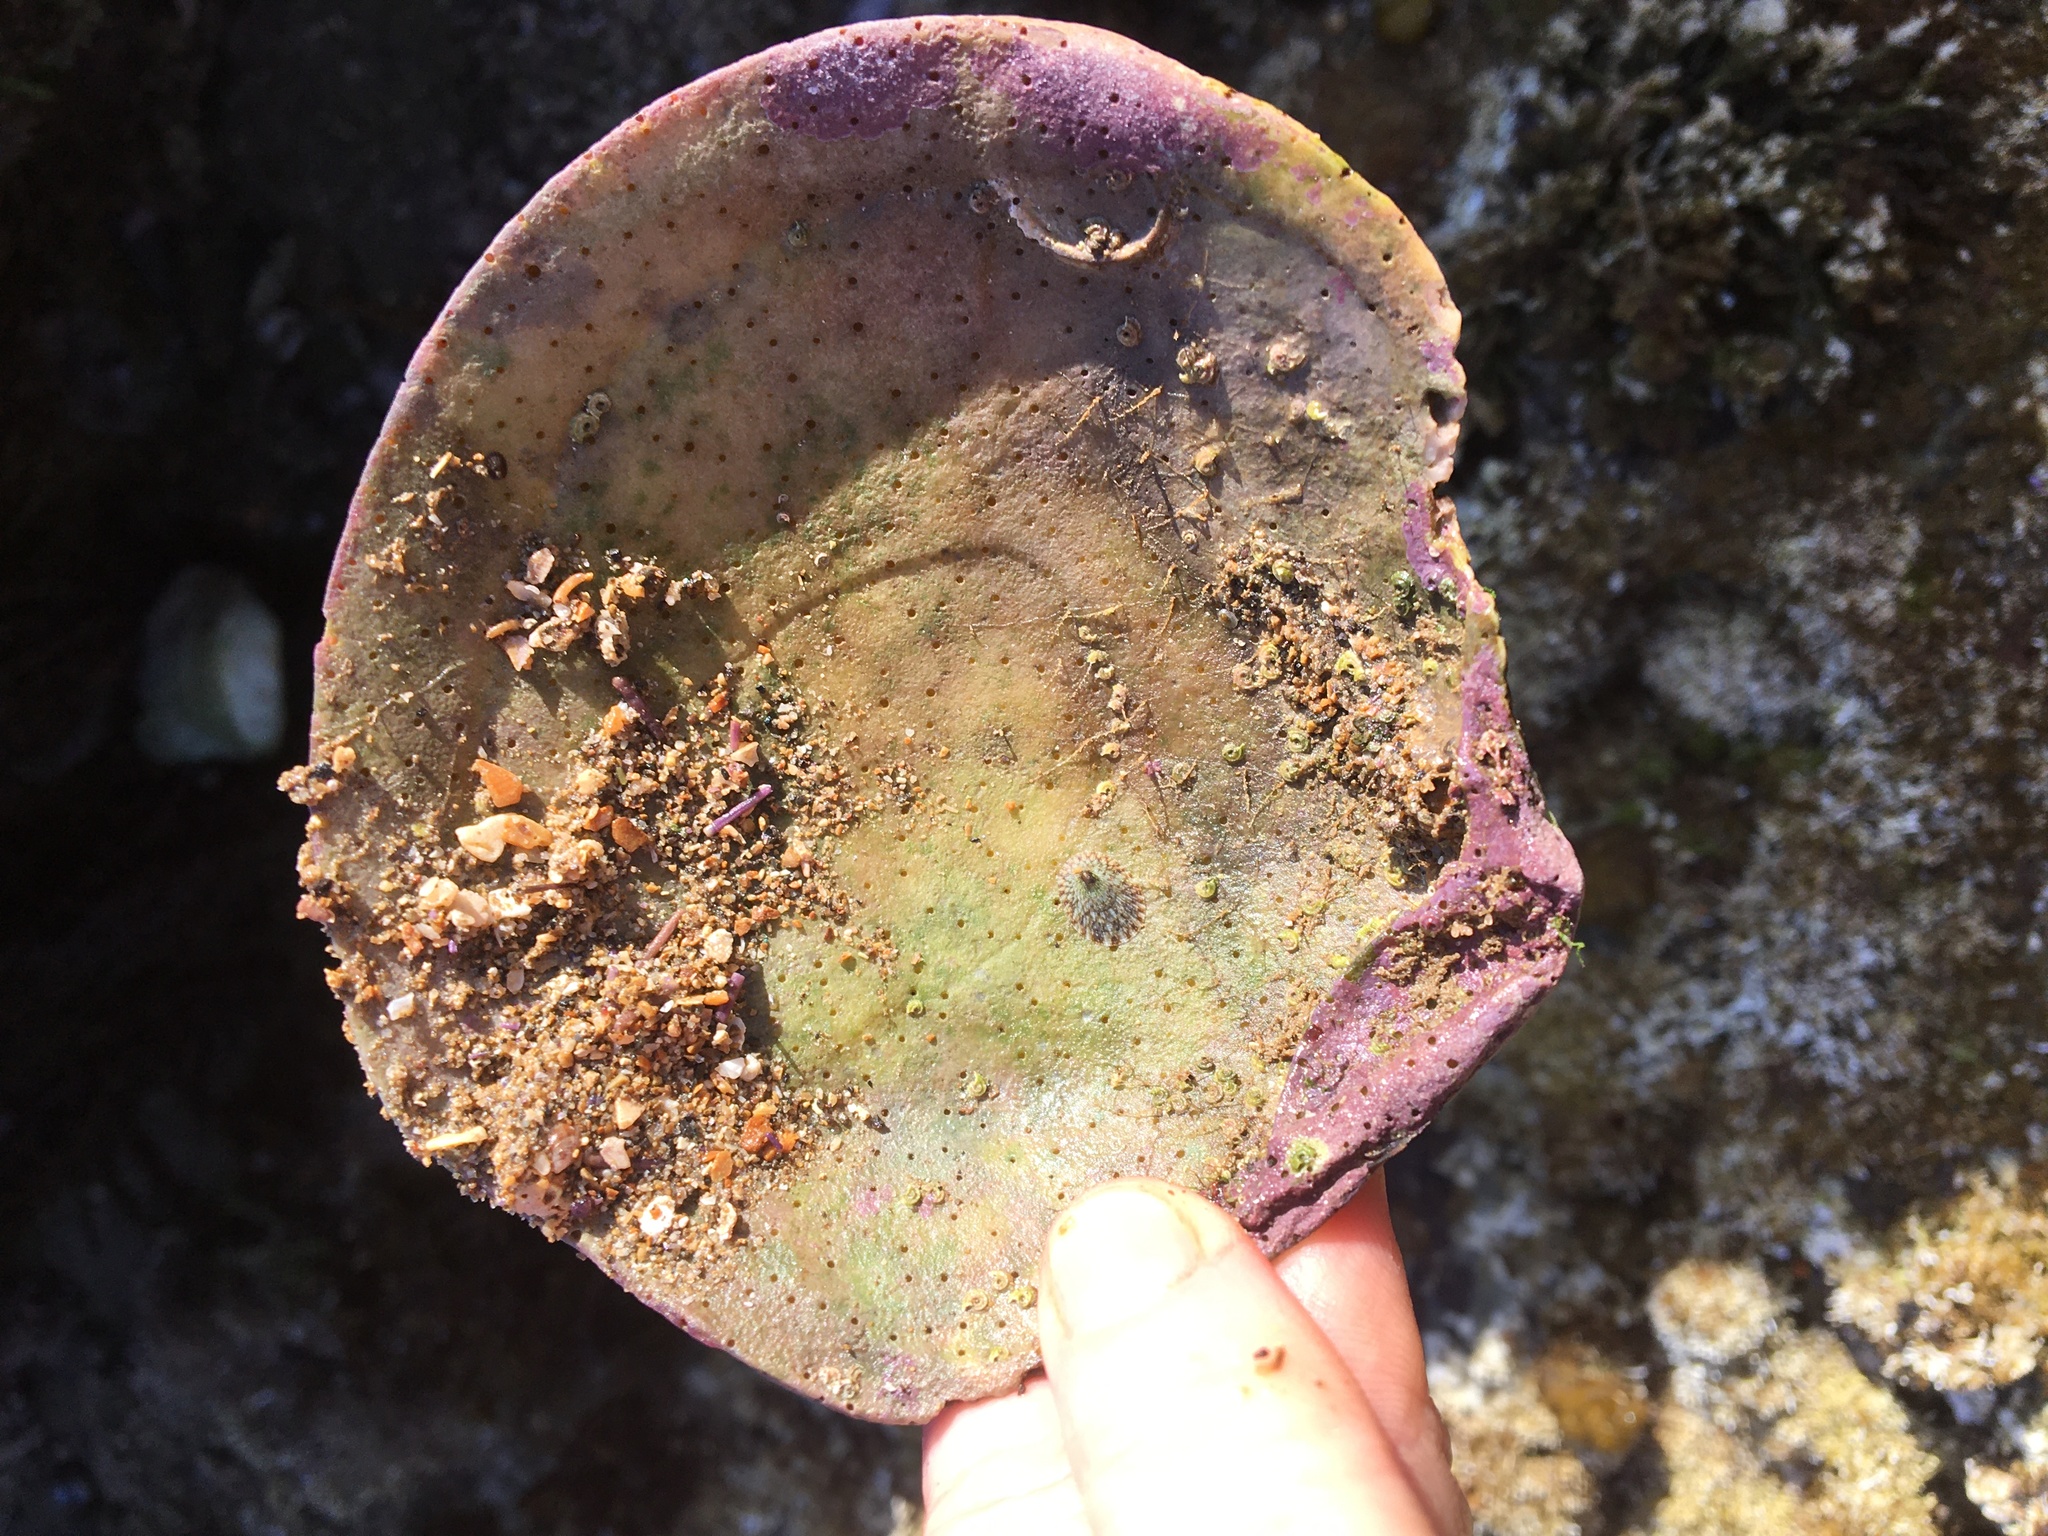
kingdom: Animalia
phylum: Mollusca
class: Bivalvia
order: Cardiida
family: Semelidae
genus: Semele
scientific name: Semele decisa
